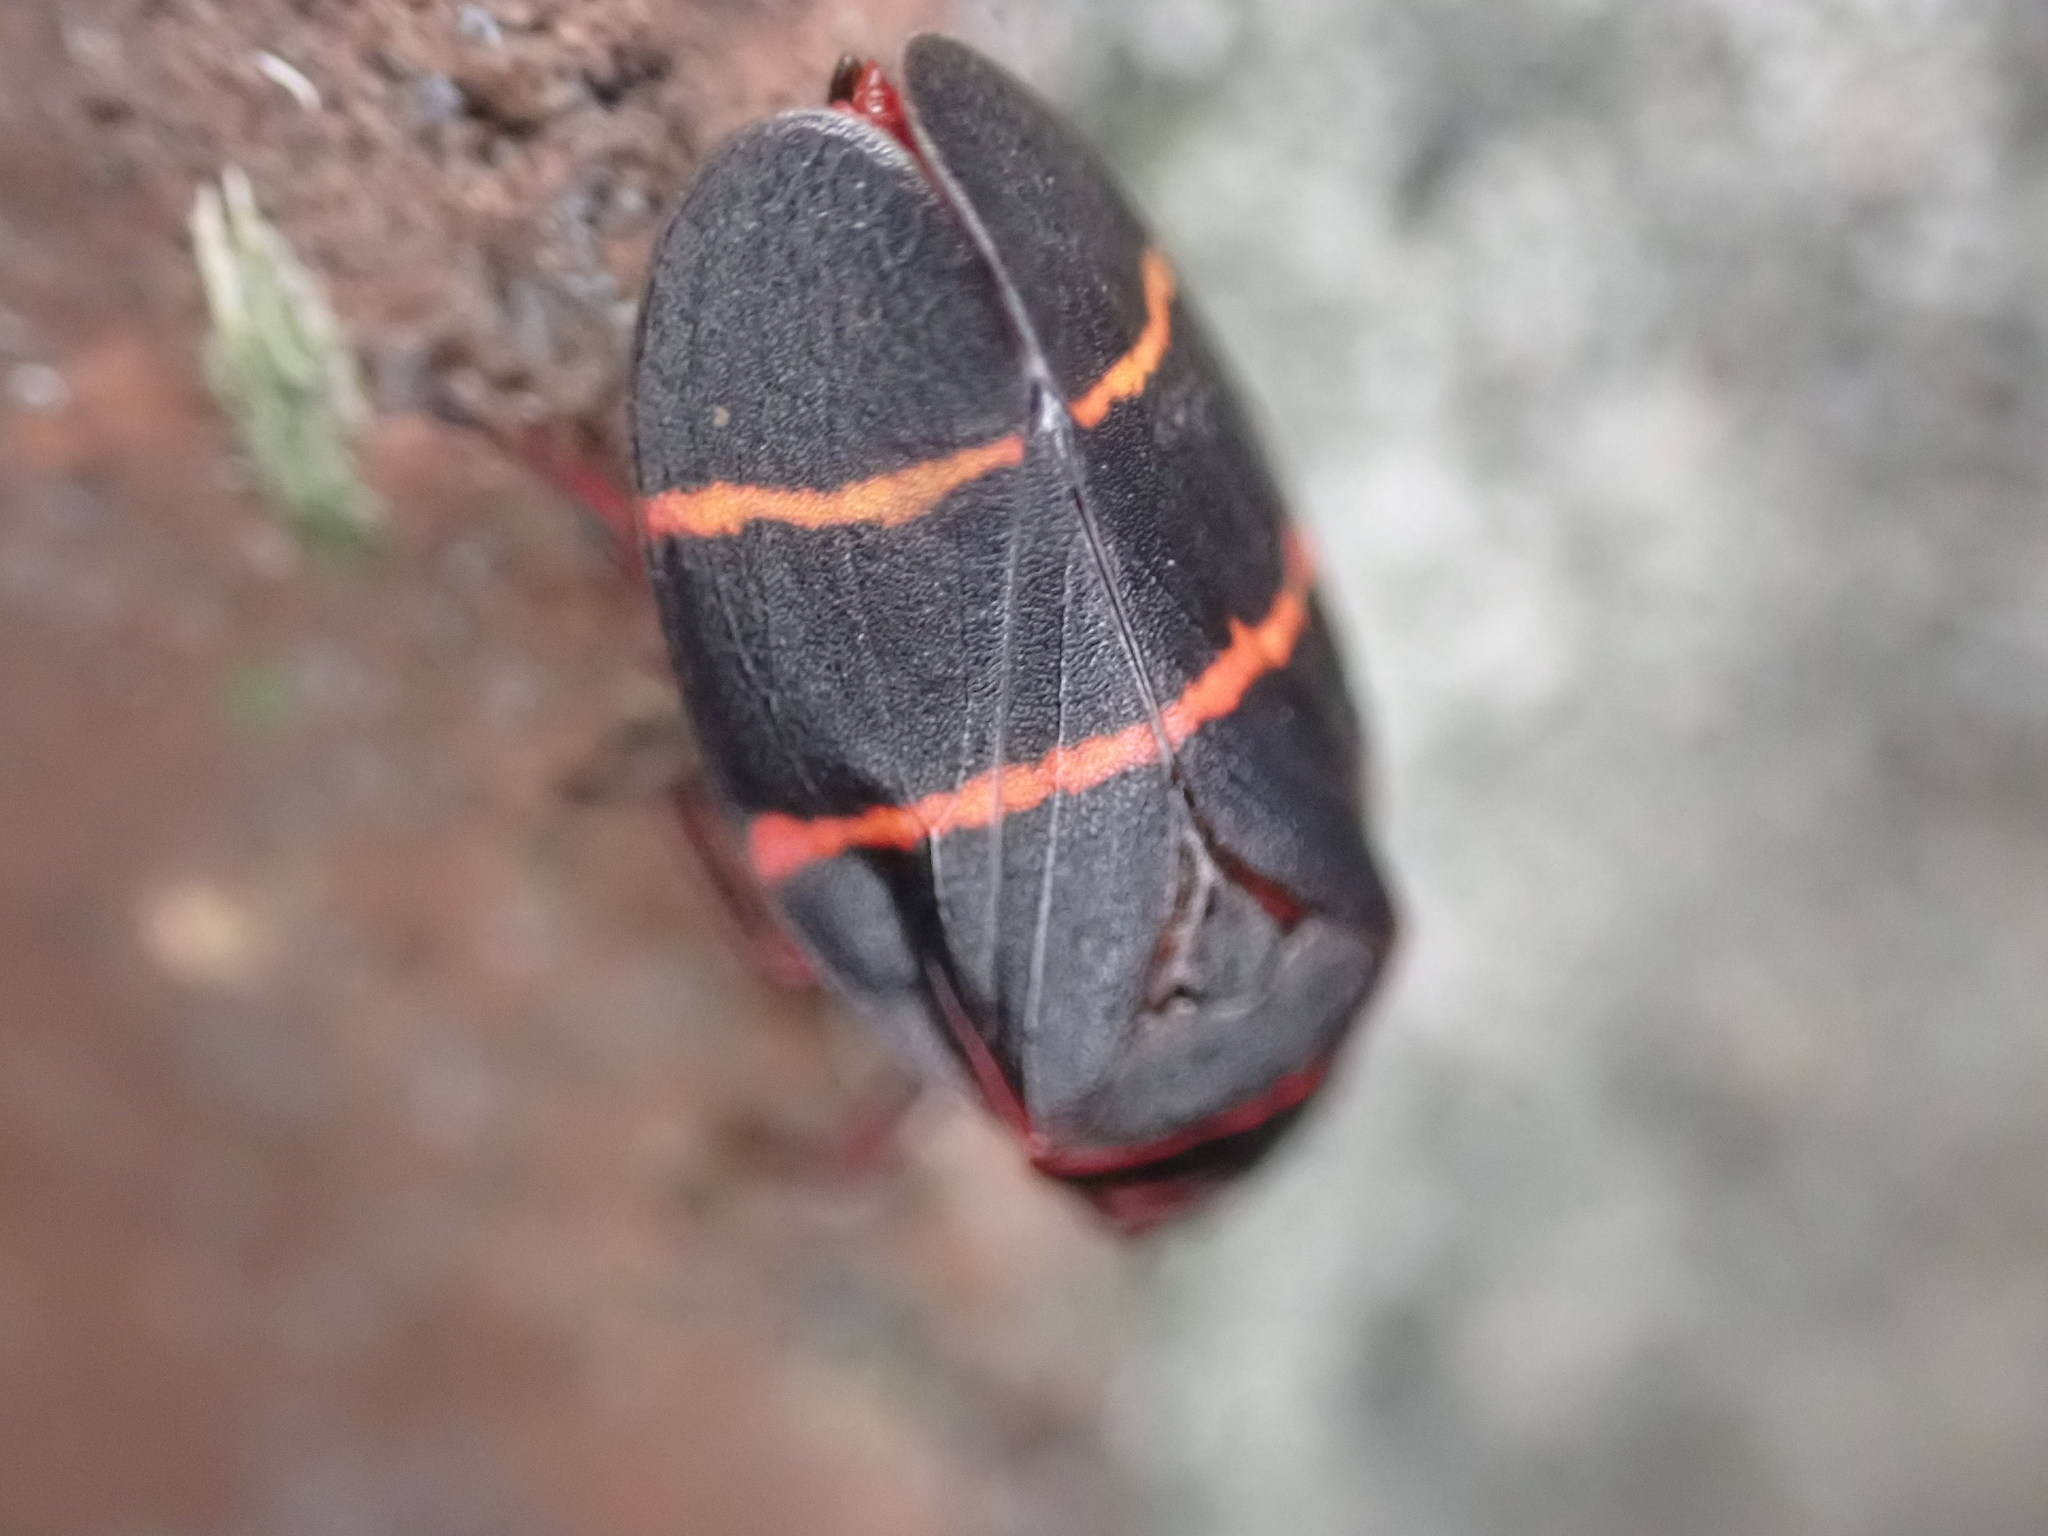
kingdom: Animalia
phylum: Arthropoda
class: Insecta
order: Hemiptera
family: Cercopidae
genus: Prosapia
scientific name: Prosapia bicincta
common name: Twolined spittlebug
